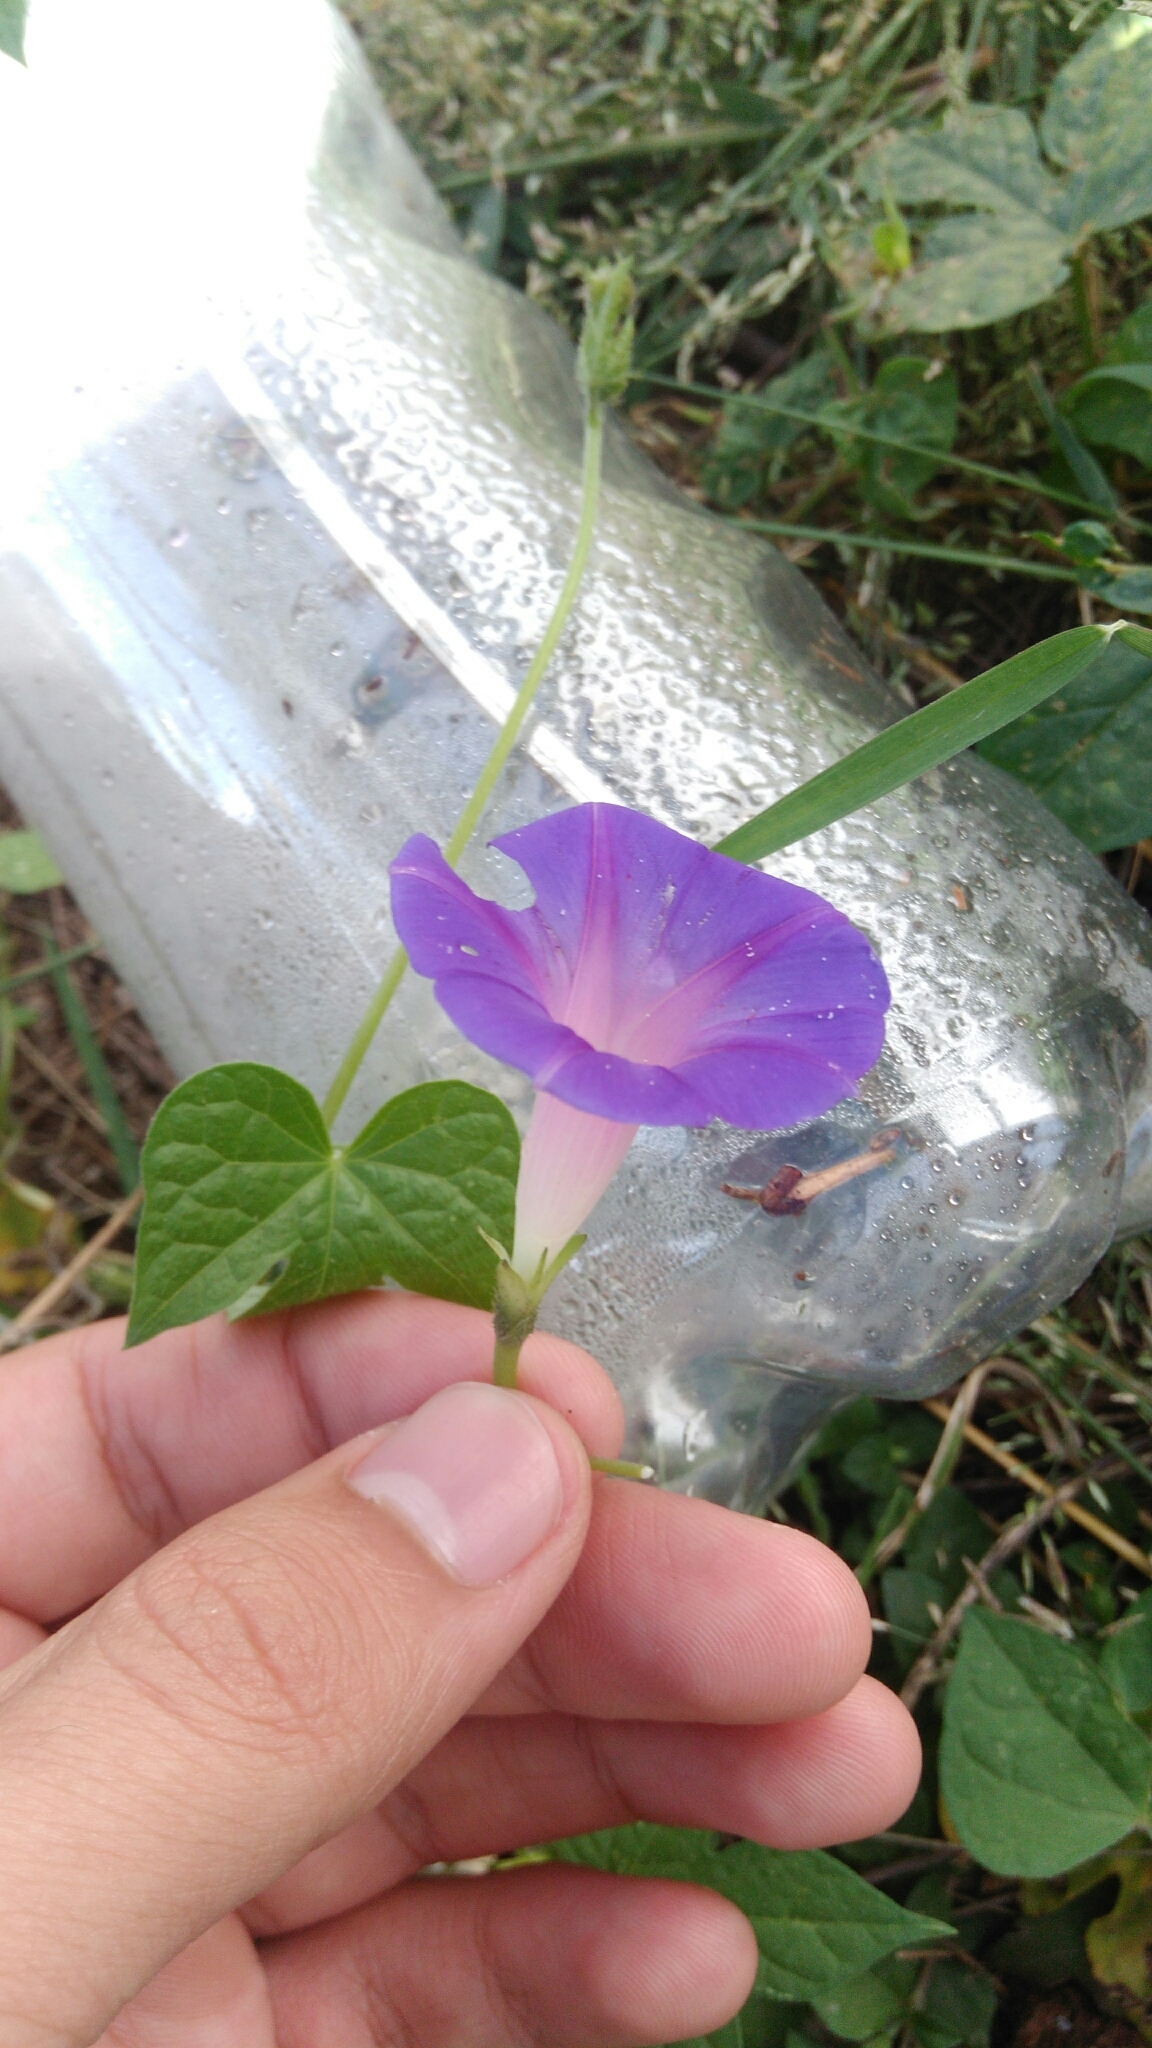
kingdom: Plantae
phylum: Tracheophyta
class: Magnoliopsida
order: Solanales
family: Convolvulaceae
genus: Ipomoea
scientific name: Ipomoea purpurea
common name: Common morning-glory
